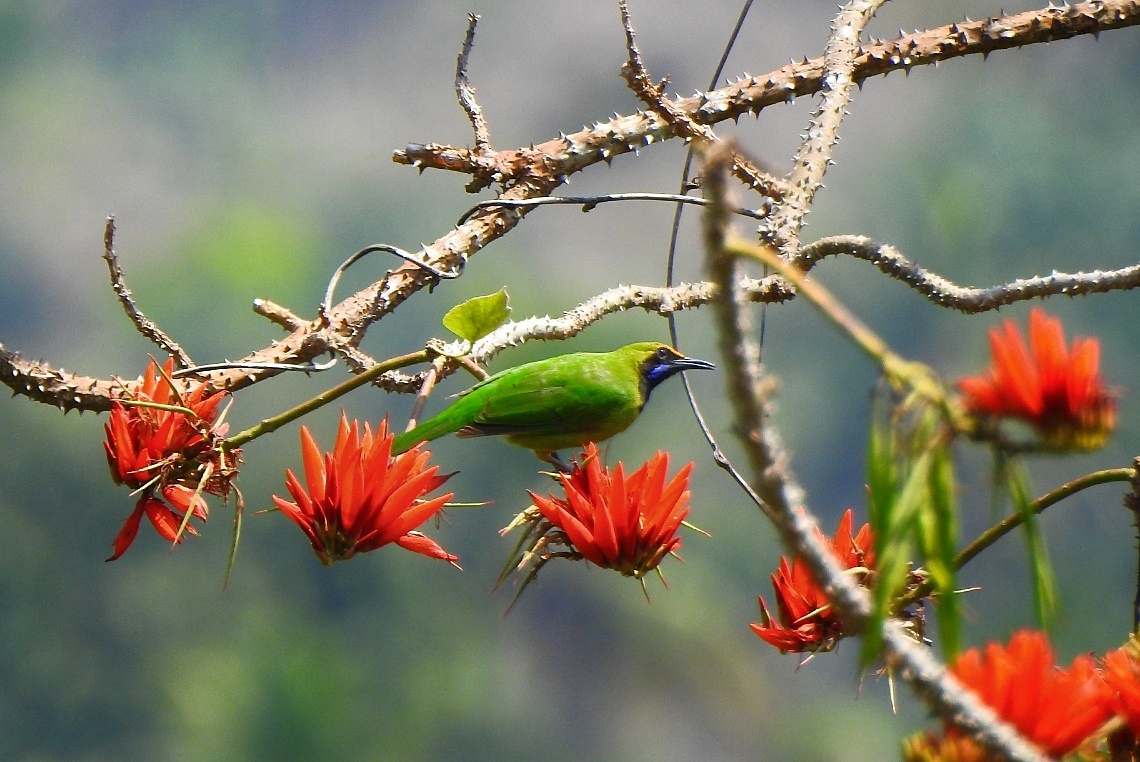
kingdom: Animalia
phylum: Chordata
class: Aves
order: Passeriformes
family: Chloropseidae
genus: Chloropsis
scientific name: Chloropsis aurifrons
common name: Golden-fronted leafbird
